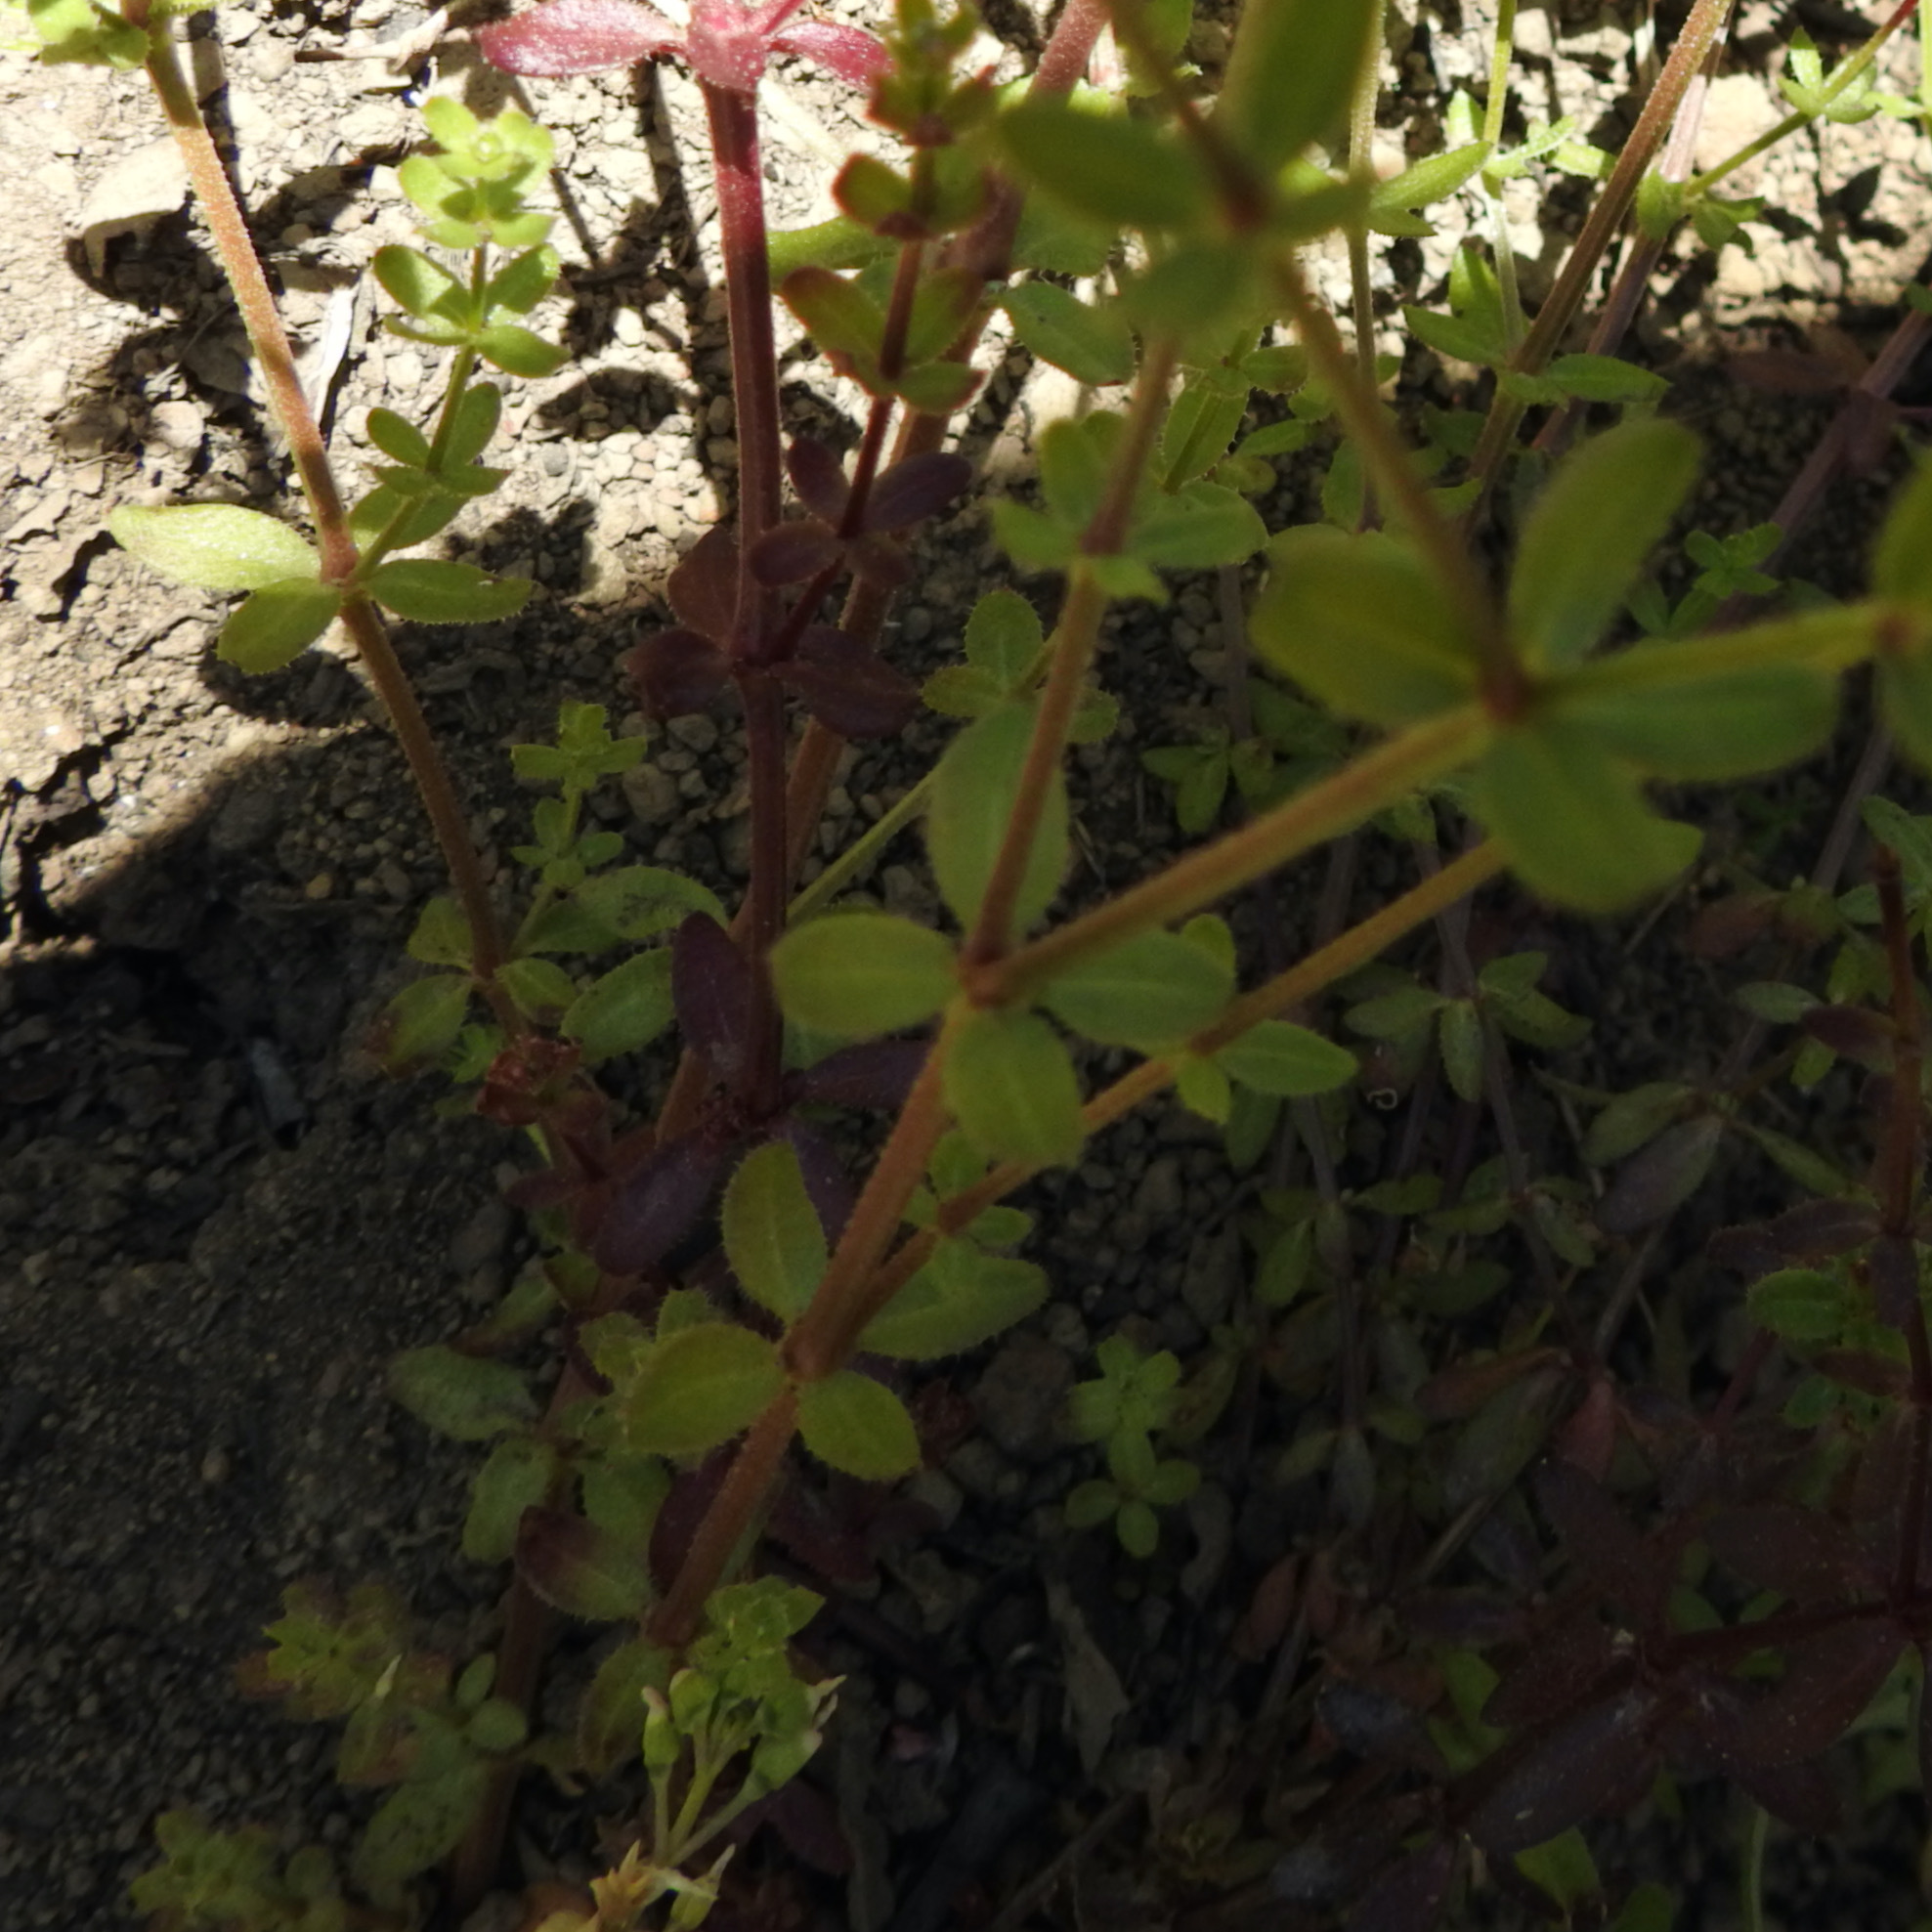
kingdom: Plantae
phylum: Tracheophyta
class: Magnoliopsida
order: Gentianales
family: Rubiaceae
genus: Galium
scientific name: Galium aparine
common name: Cleavers
